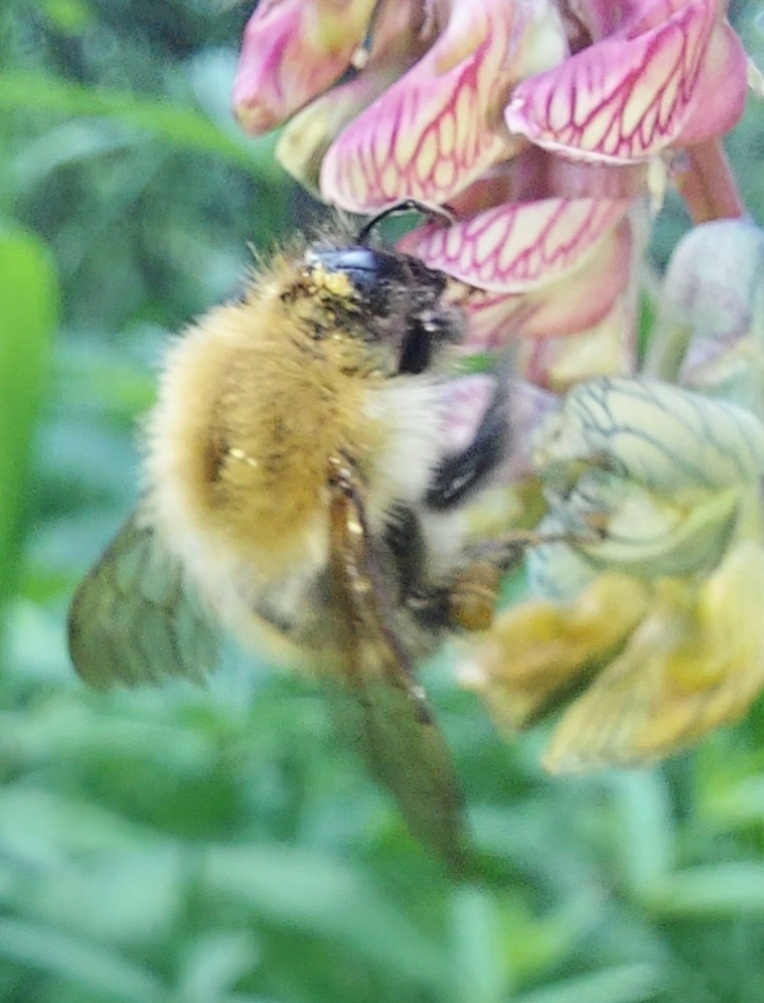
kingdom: Animalia
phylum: Arthropoda
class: Insecta
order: Hymenoptera
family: Apidae
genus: Bombus
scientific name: Bombus pascuorum
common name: Common carder bee
